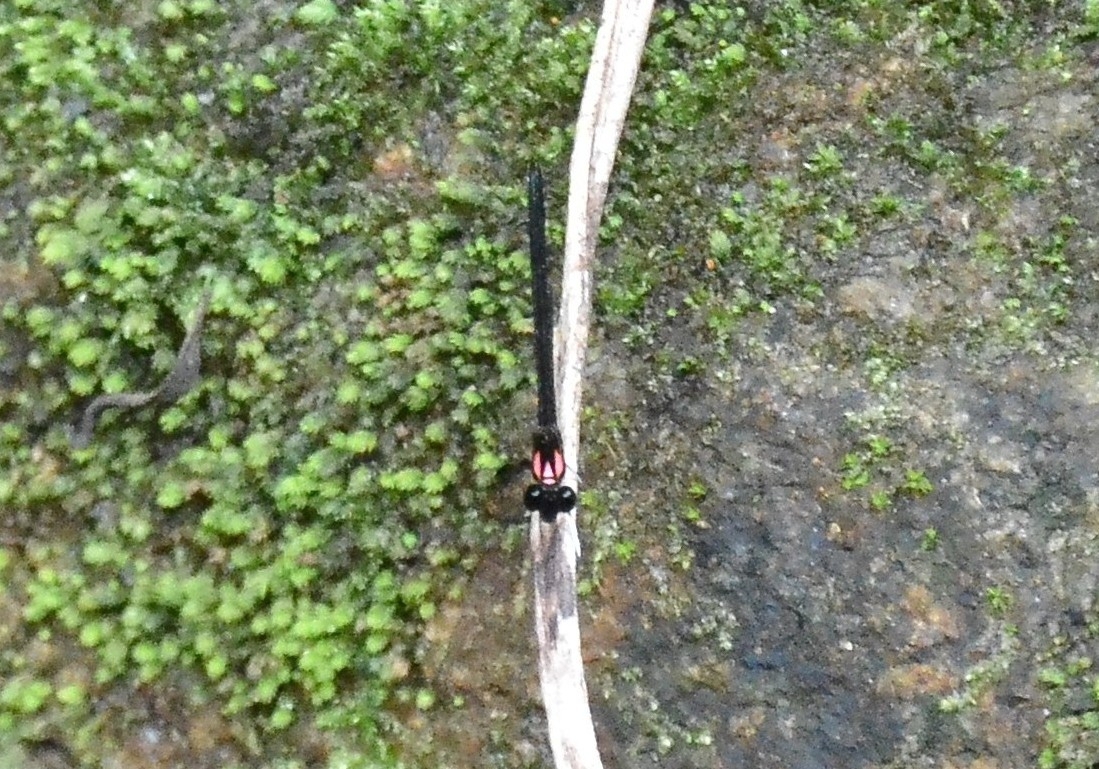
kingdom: Animalia
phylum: Arthropoda
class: Insecta
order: Odonata
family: Chlorocyphidae
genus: Heliocypha
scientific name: Heliocypha bisignata
